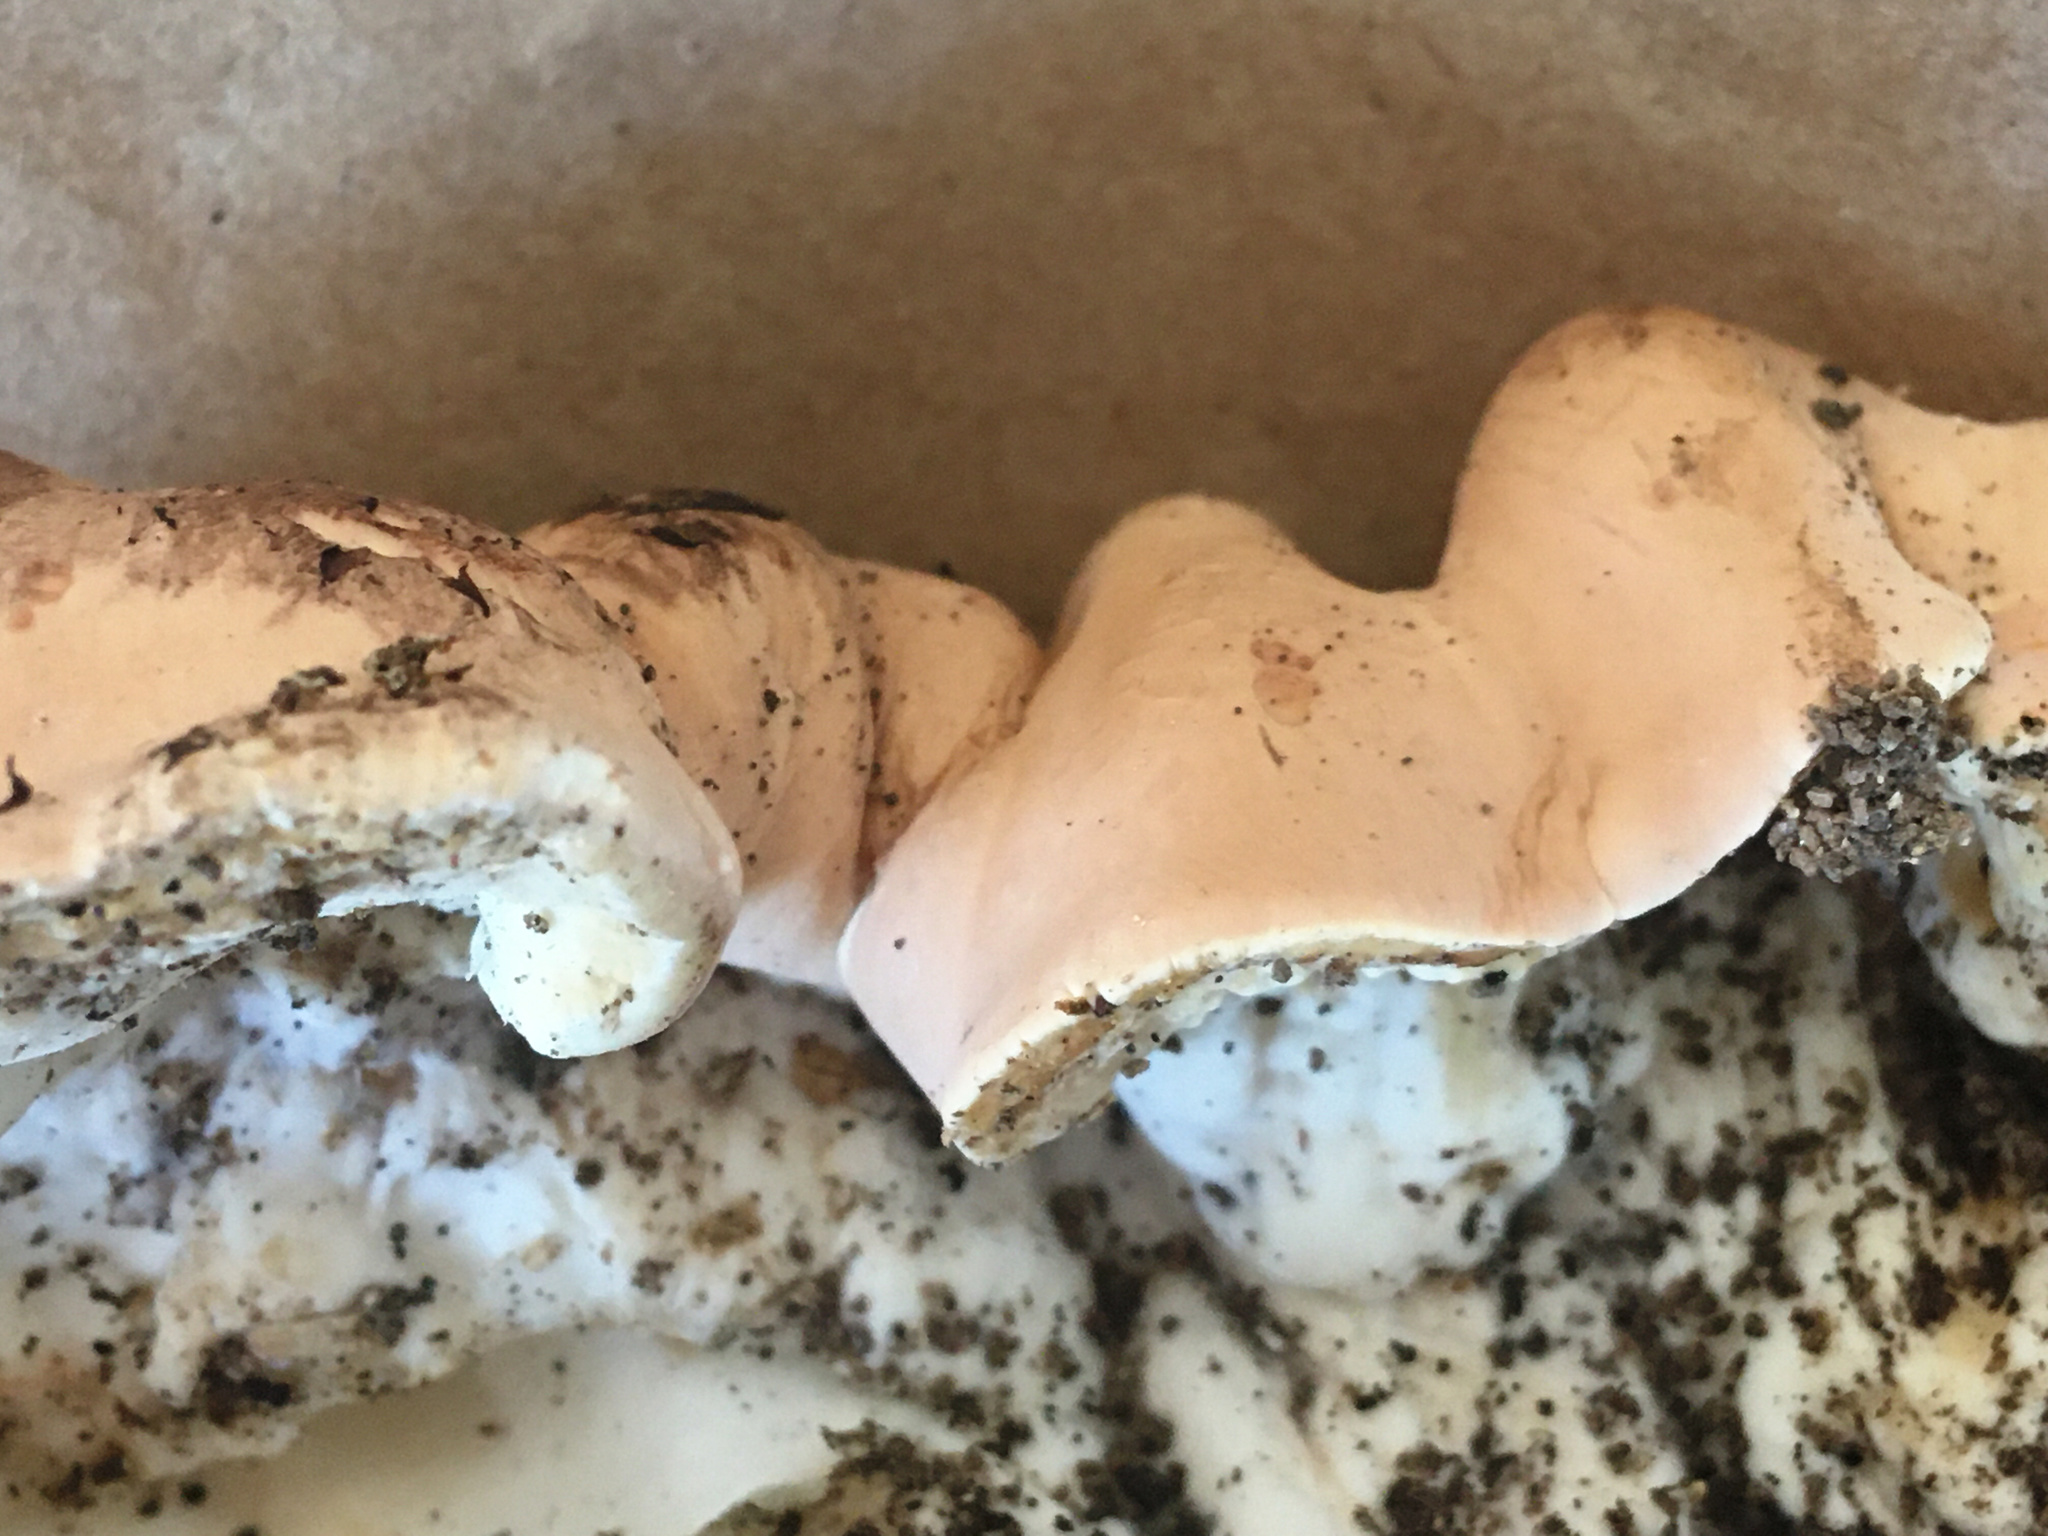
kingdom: Fungi
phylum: Ascomycota
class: Sordariomycetes
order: Hypocreales
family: Hypocreaceae
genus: Trichoderma
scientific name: Trichoderma peltatum
